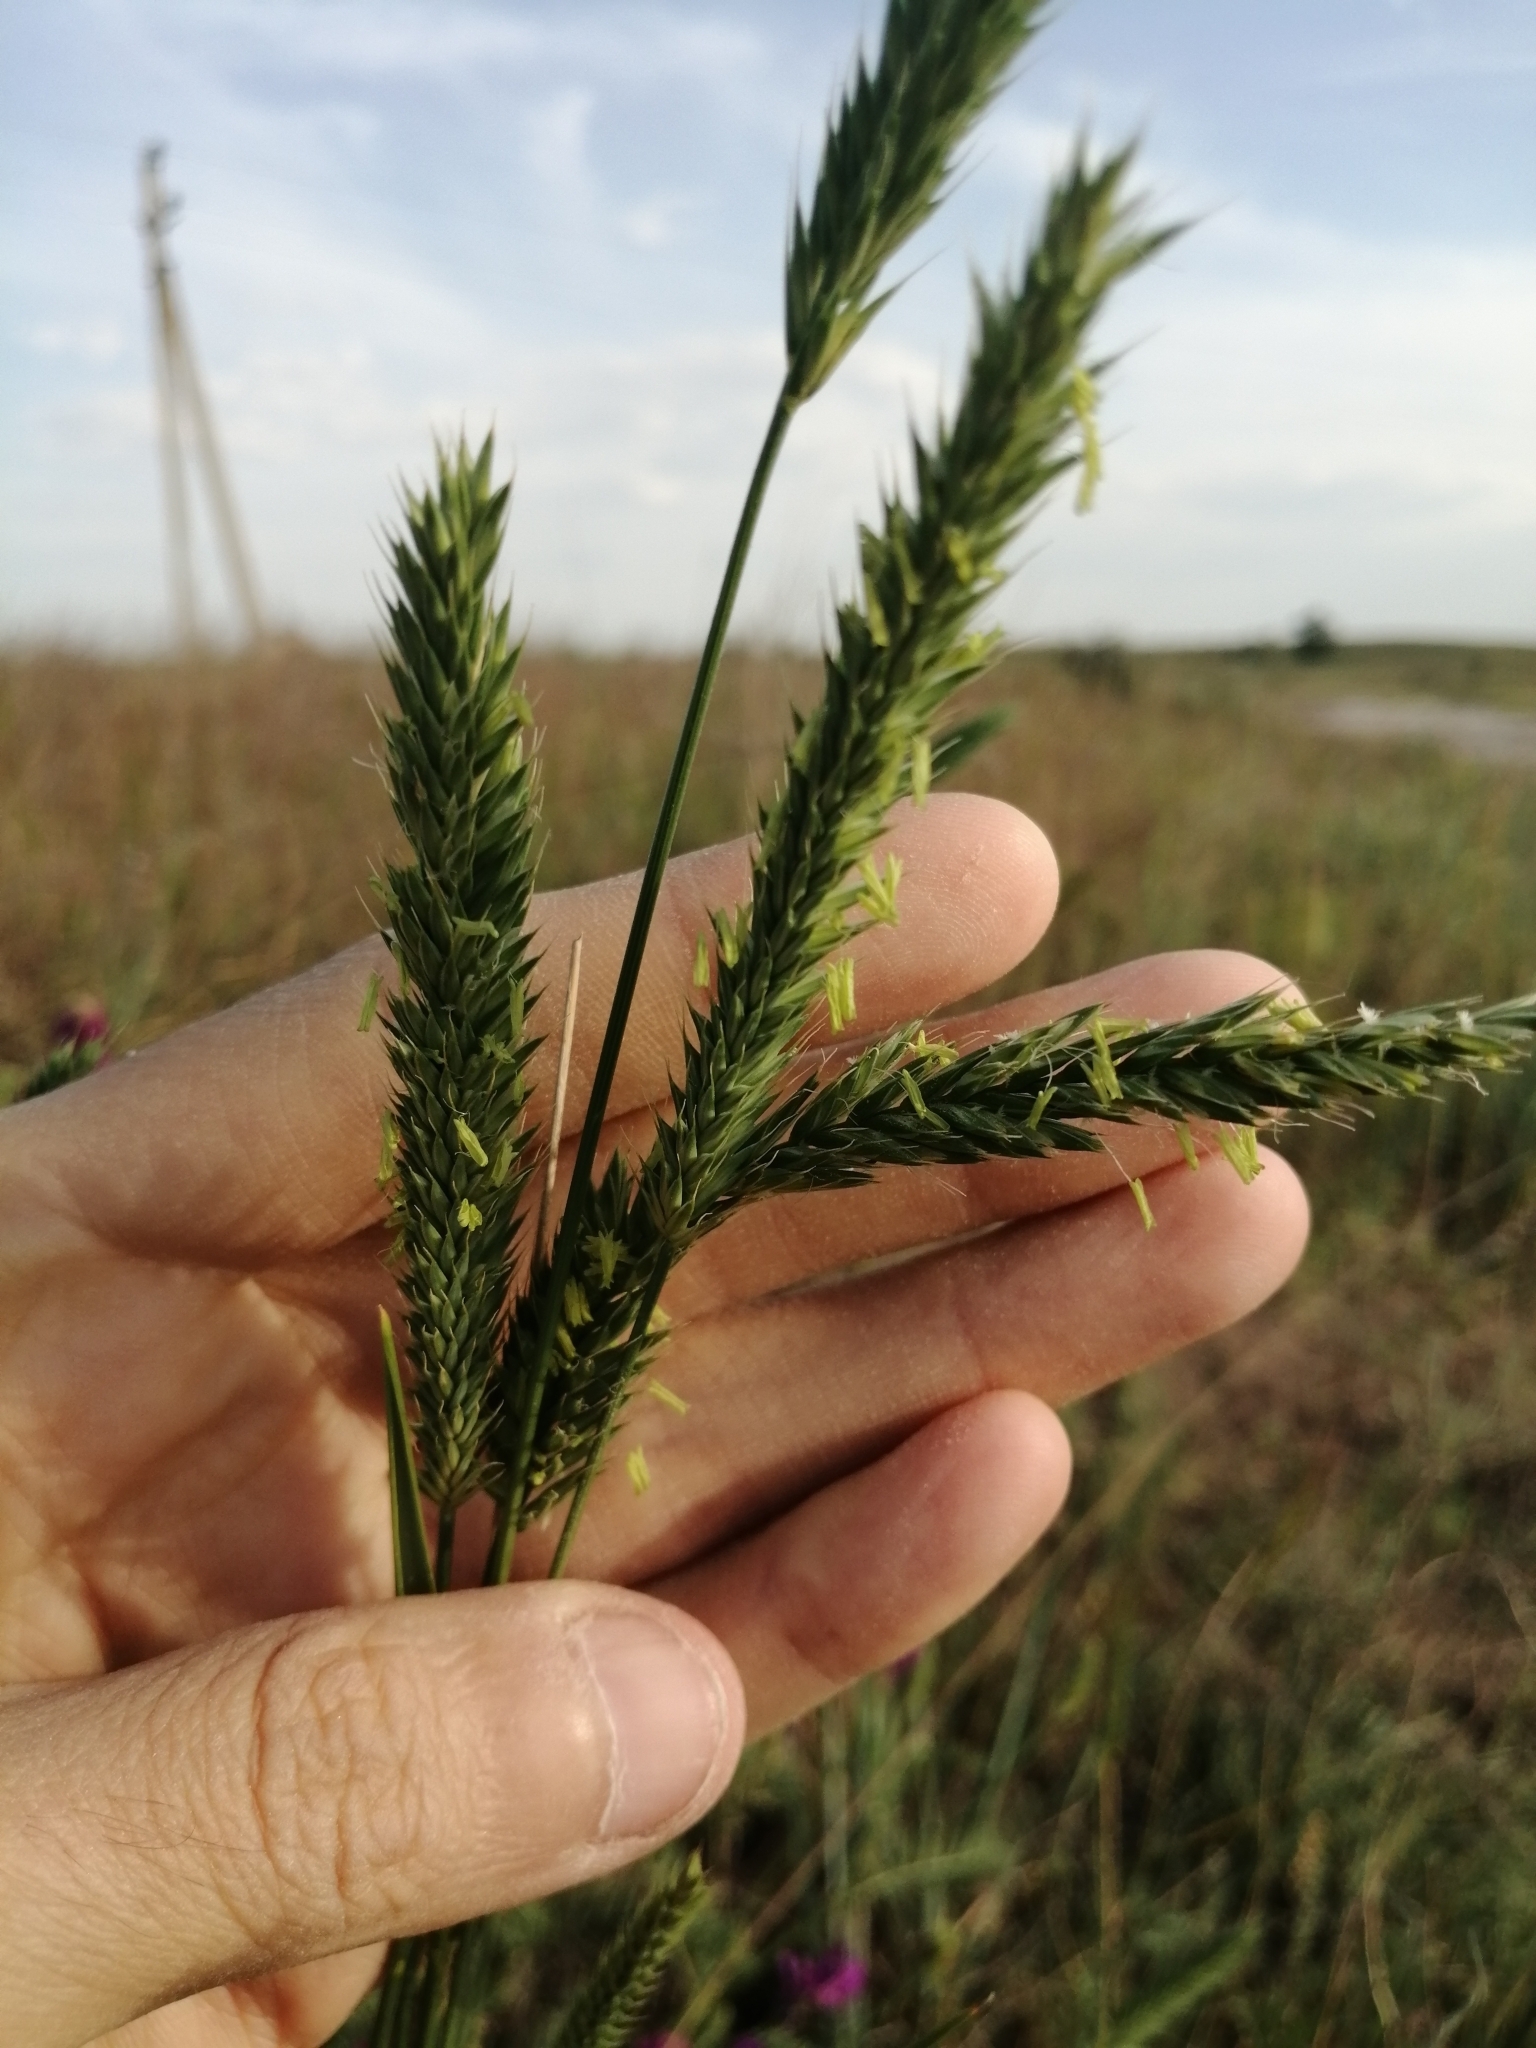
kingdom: Plantae
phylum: Tracheophyta
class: Liliopsida
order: Poales
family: Poaceae
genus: Agropyron
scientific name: Agropyron fragile
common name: Siberian wheatgrass
